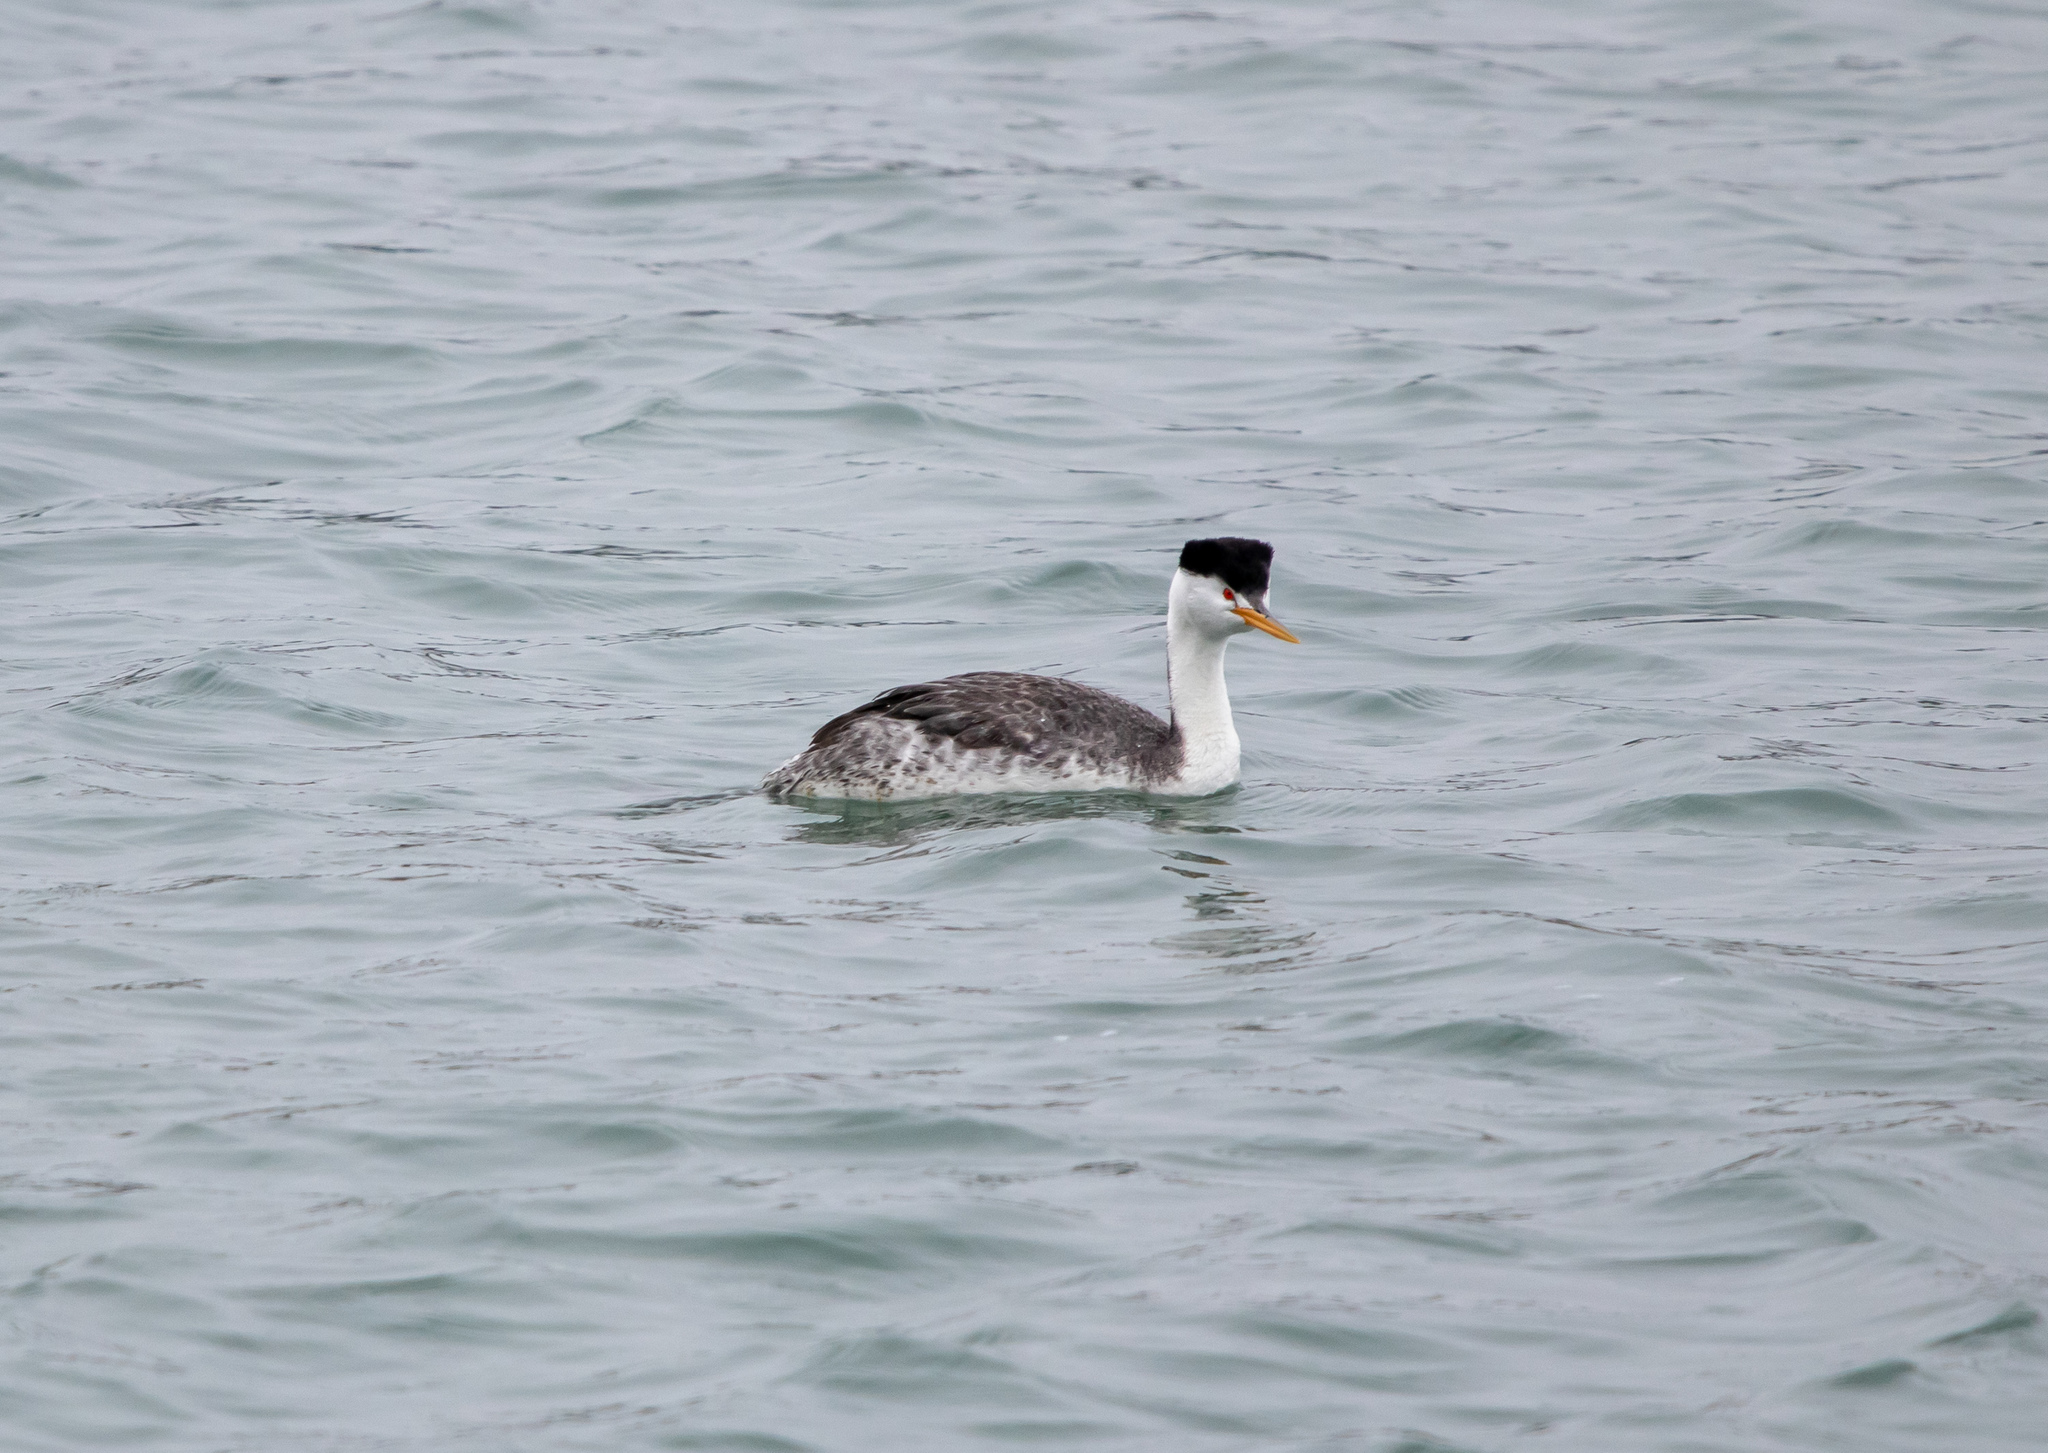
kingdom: Animalia
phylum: Chordata
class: Aves
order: Podicipediformes
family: Podicipedidae
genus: Aechmophorus
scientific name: Aechmophorus clarkii
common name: Clark's grebe
